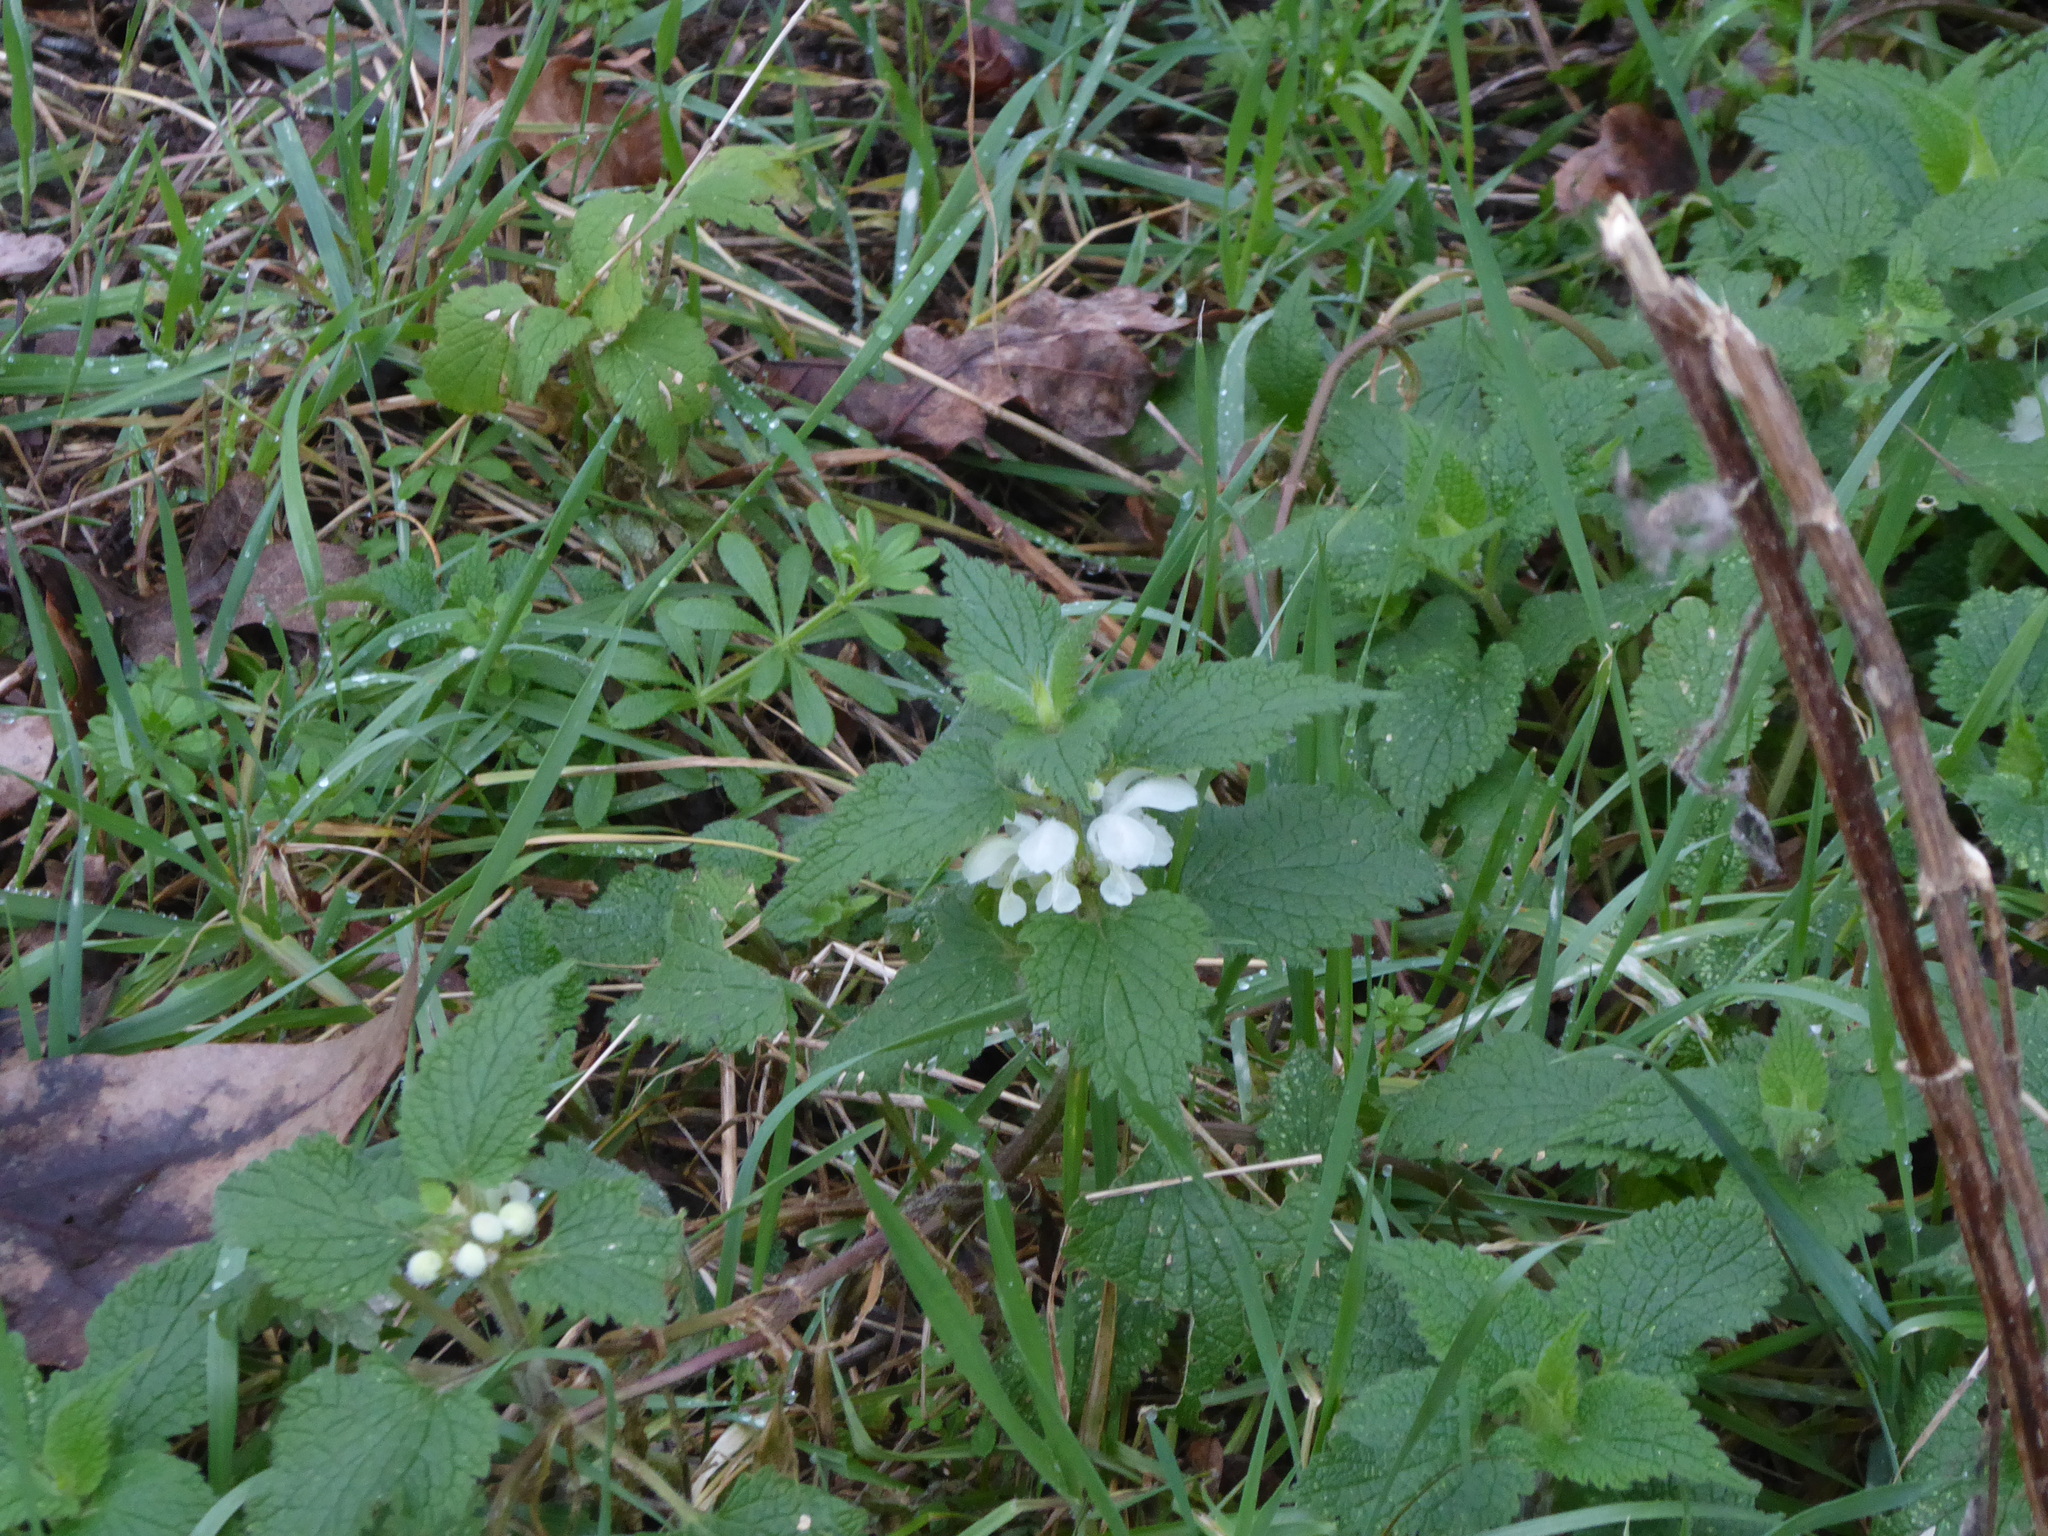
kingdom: Plantae
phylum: Tracheophyta
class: Magnoliopsida
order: Lamiales
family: Lamiaceae
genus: Lamium
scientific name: Lamium album
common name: White dead-nettle
